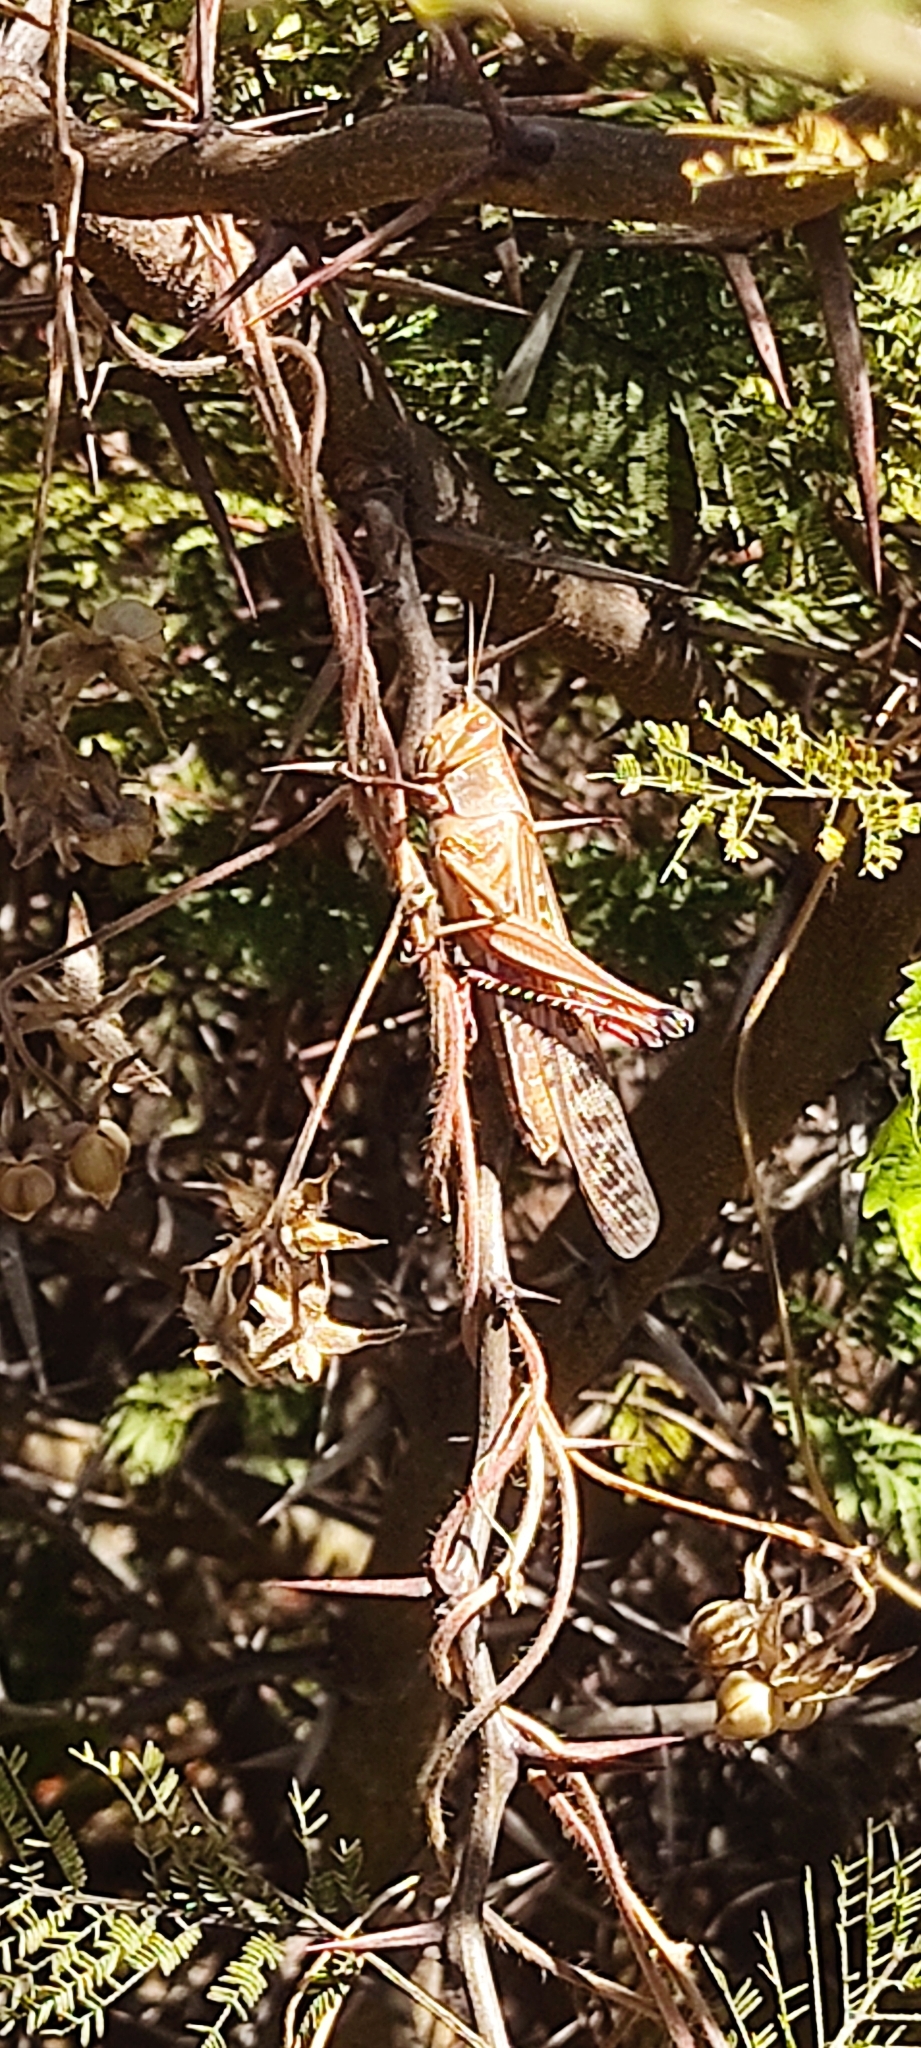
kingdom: Animalia
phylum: Arthropoda
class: Insecta
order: Orthoptera
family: Acrididae
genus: Schistocerca
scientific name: Schistocerca piceifrons
